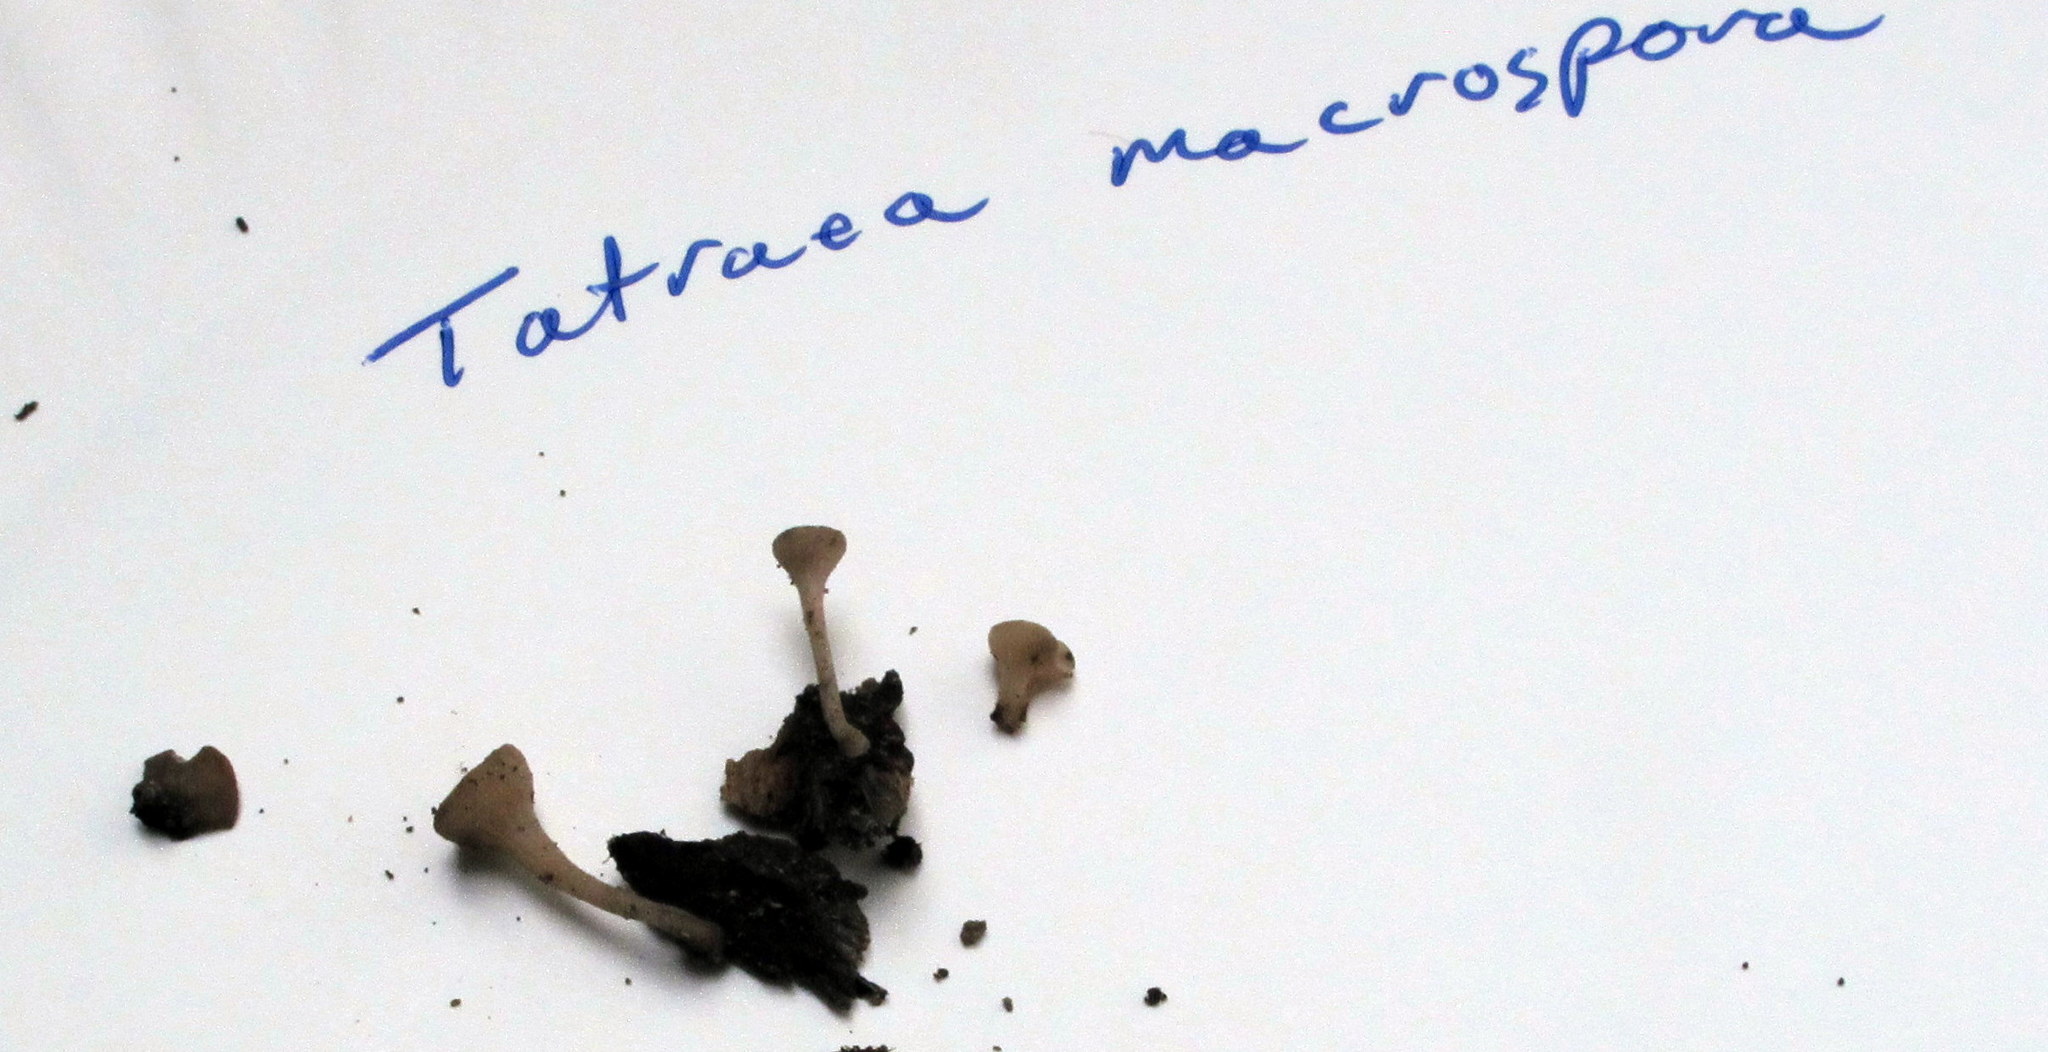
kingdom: Fungi
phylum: Ascomycota
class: Leotiomycetes
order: Helotiales
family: Helotiaceae
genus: Tatraea
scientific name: Tatraea macrospora
